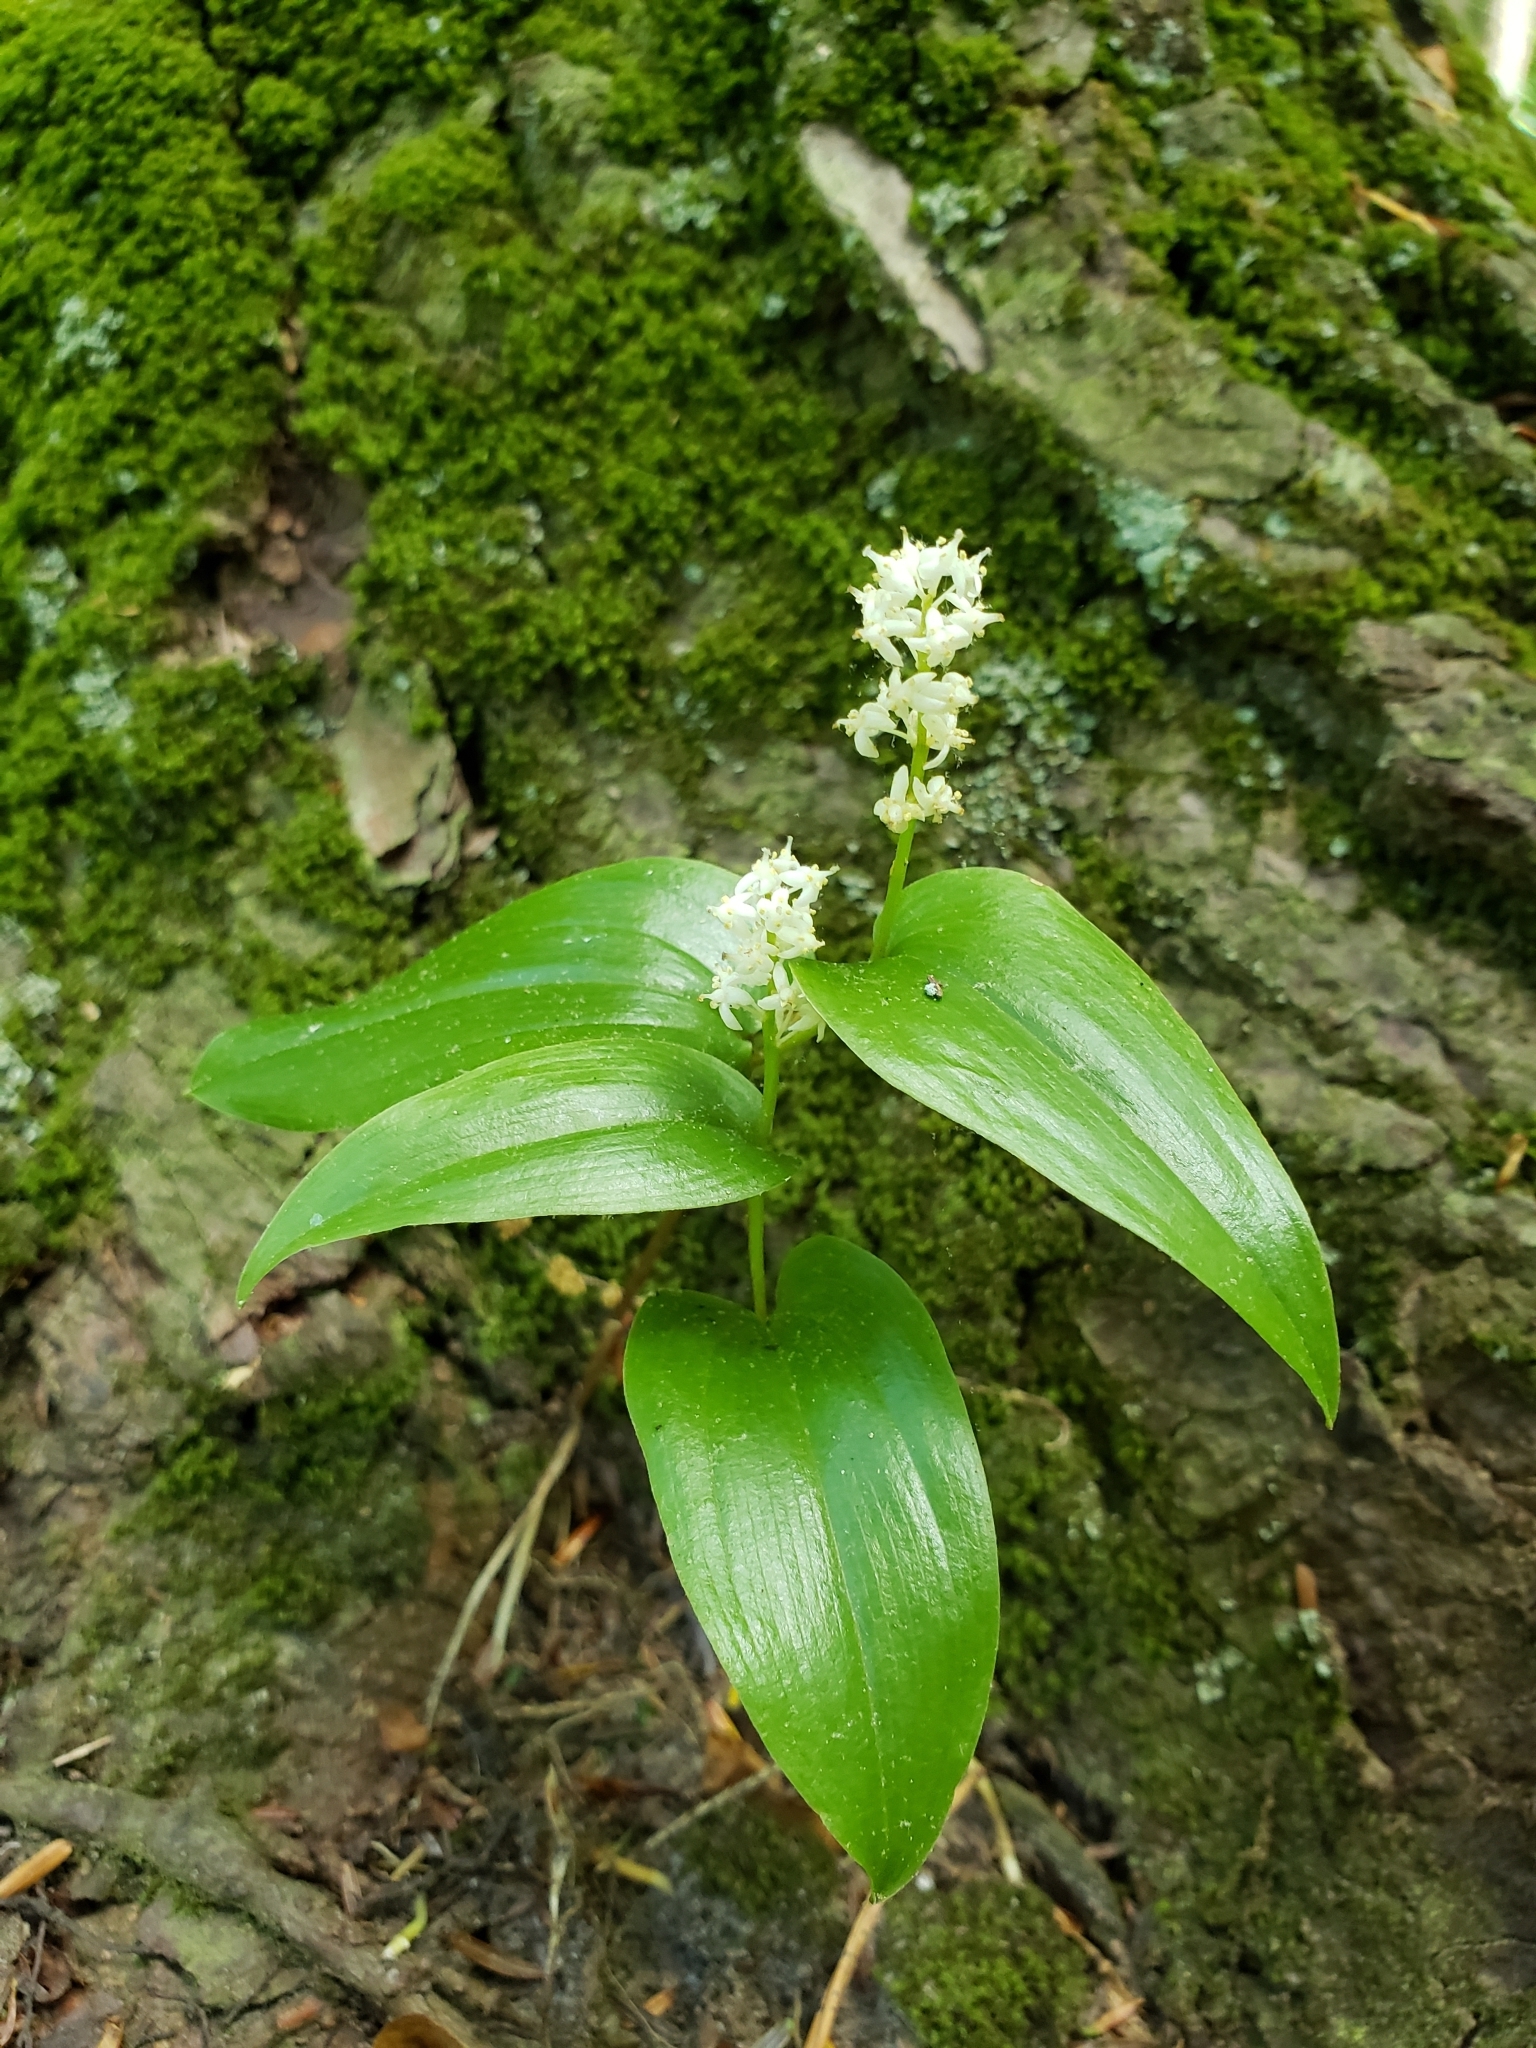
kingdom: Plantae
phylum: Tracheophyta
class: Liliopsida
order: Asparagales
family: Asparagaceae
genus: Maianthemum
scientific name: Maianthemum canadense
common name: False lily-of-the-valley
